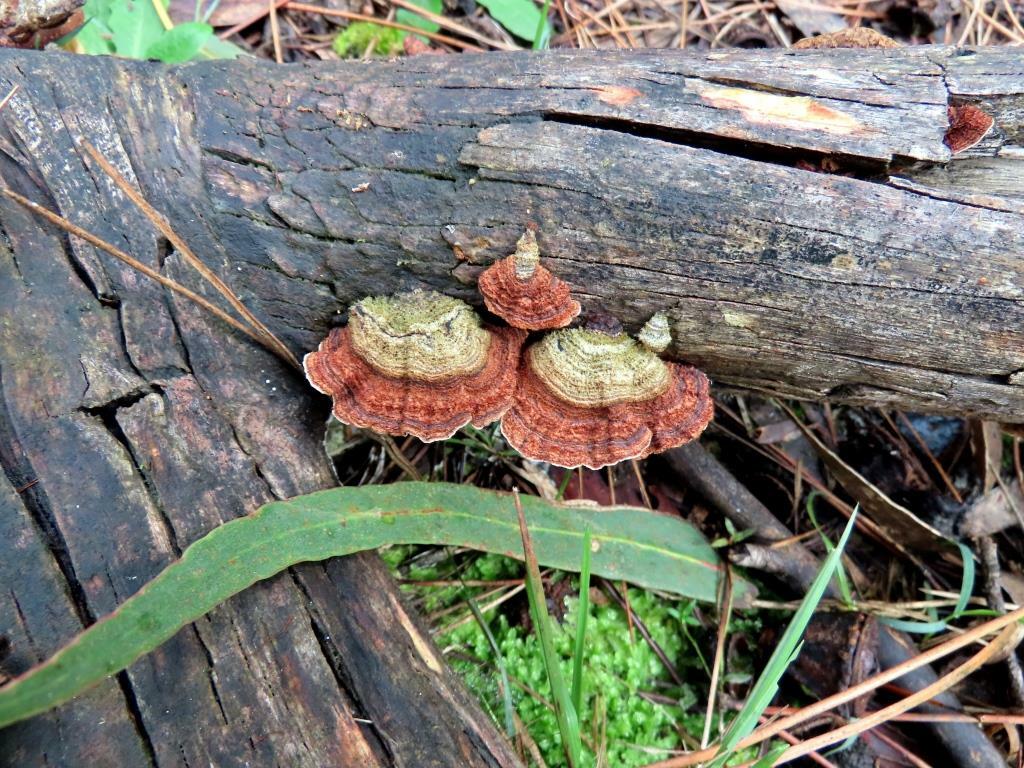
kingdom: Fungi
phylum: Basidiomycota
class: Agaricomycetes
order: Russulales
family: Stereaceae
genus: Xylobolus
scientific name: Xylobolus illudens
